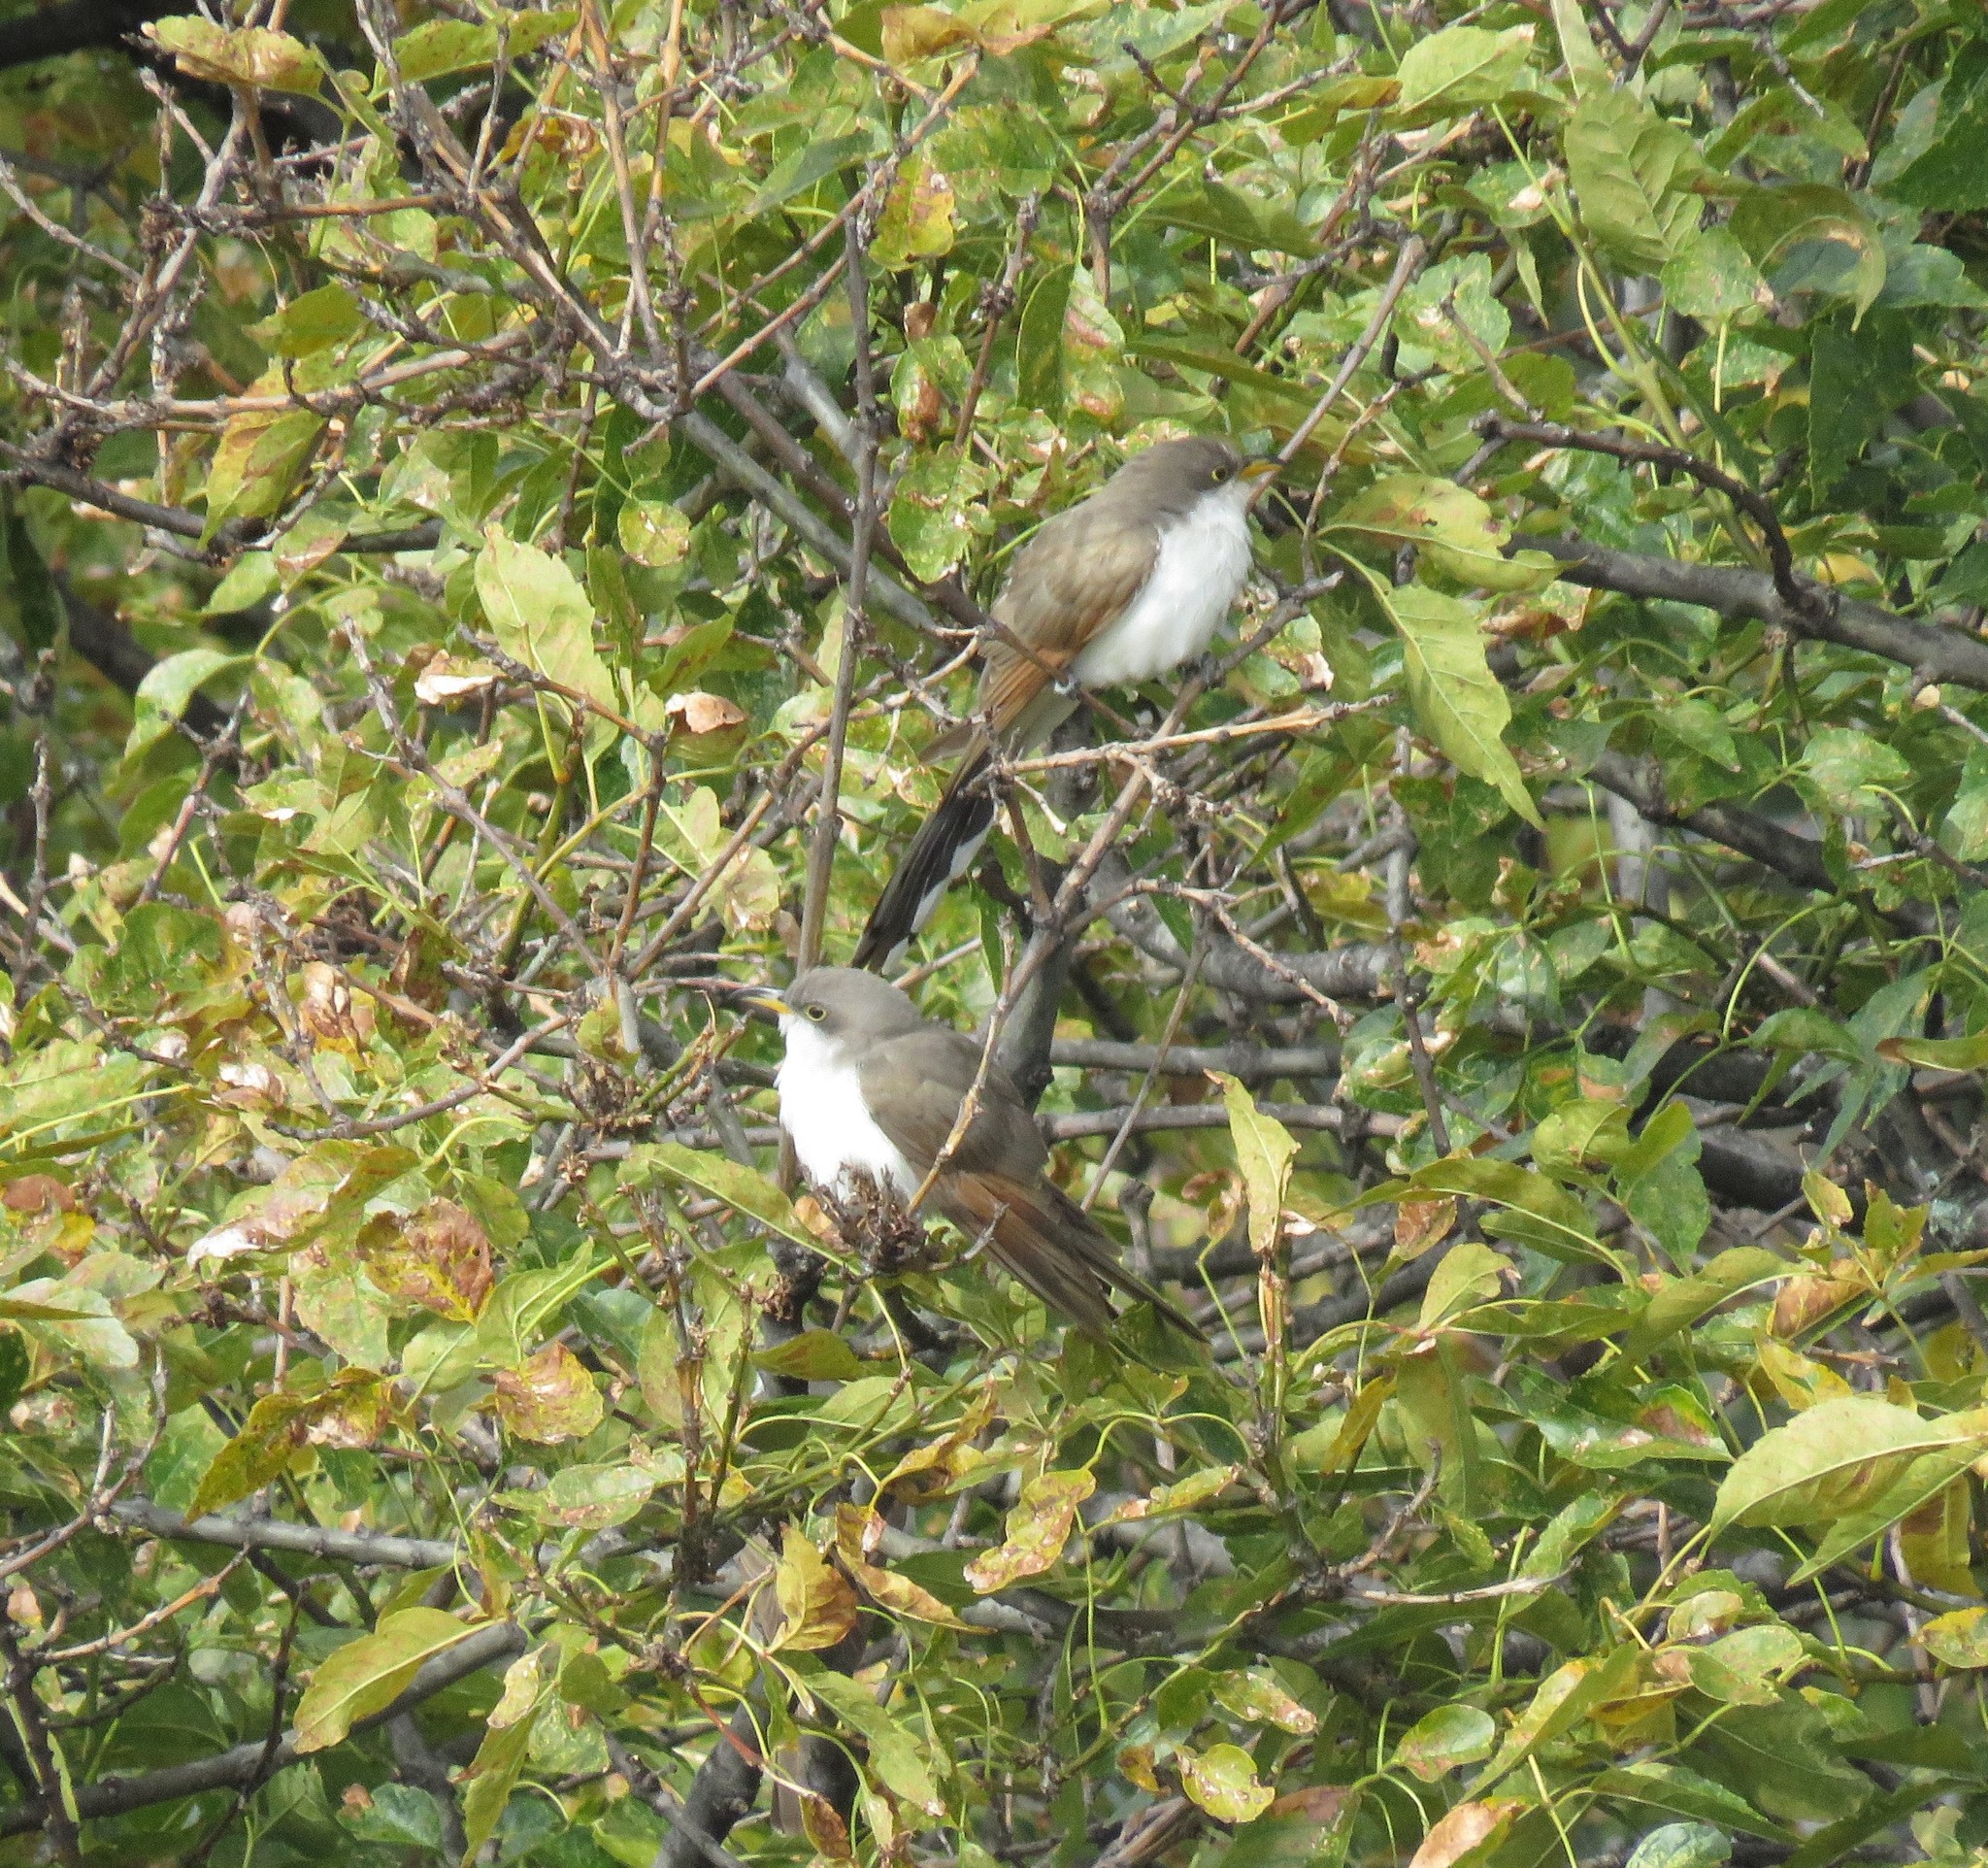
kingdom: Animalia
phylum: Chordata
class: Aves
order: Cuculiformes
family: Cuculidae
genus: Coccyzus
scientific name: Coccyzus americanus
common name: Yellow-billed cuckoo
